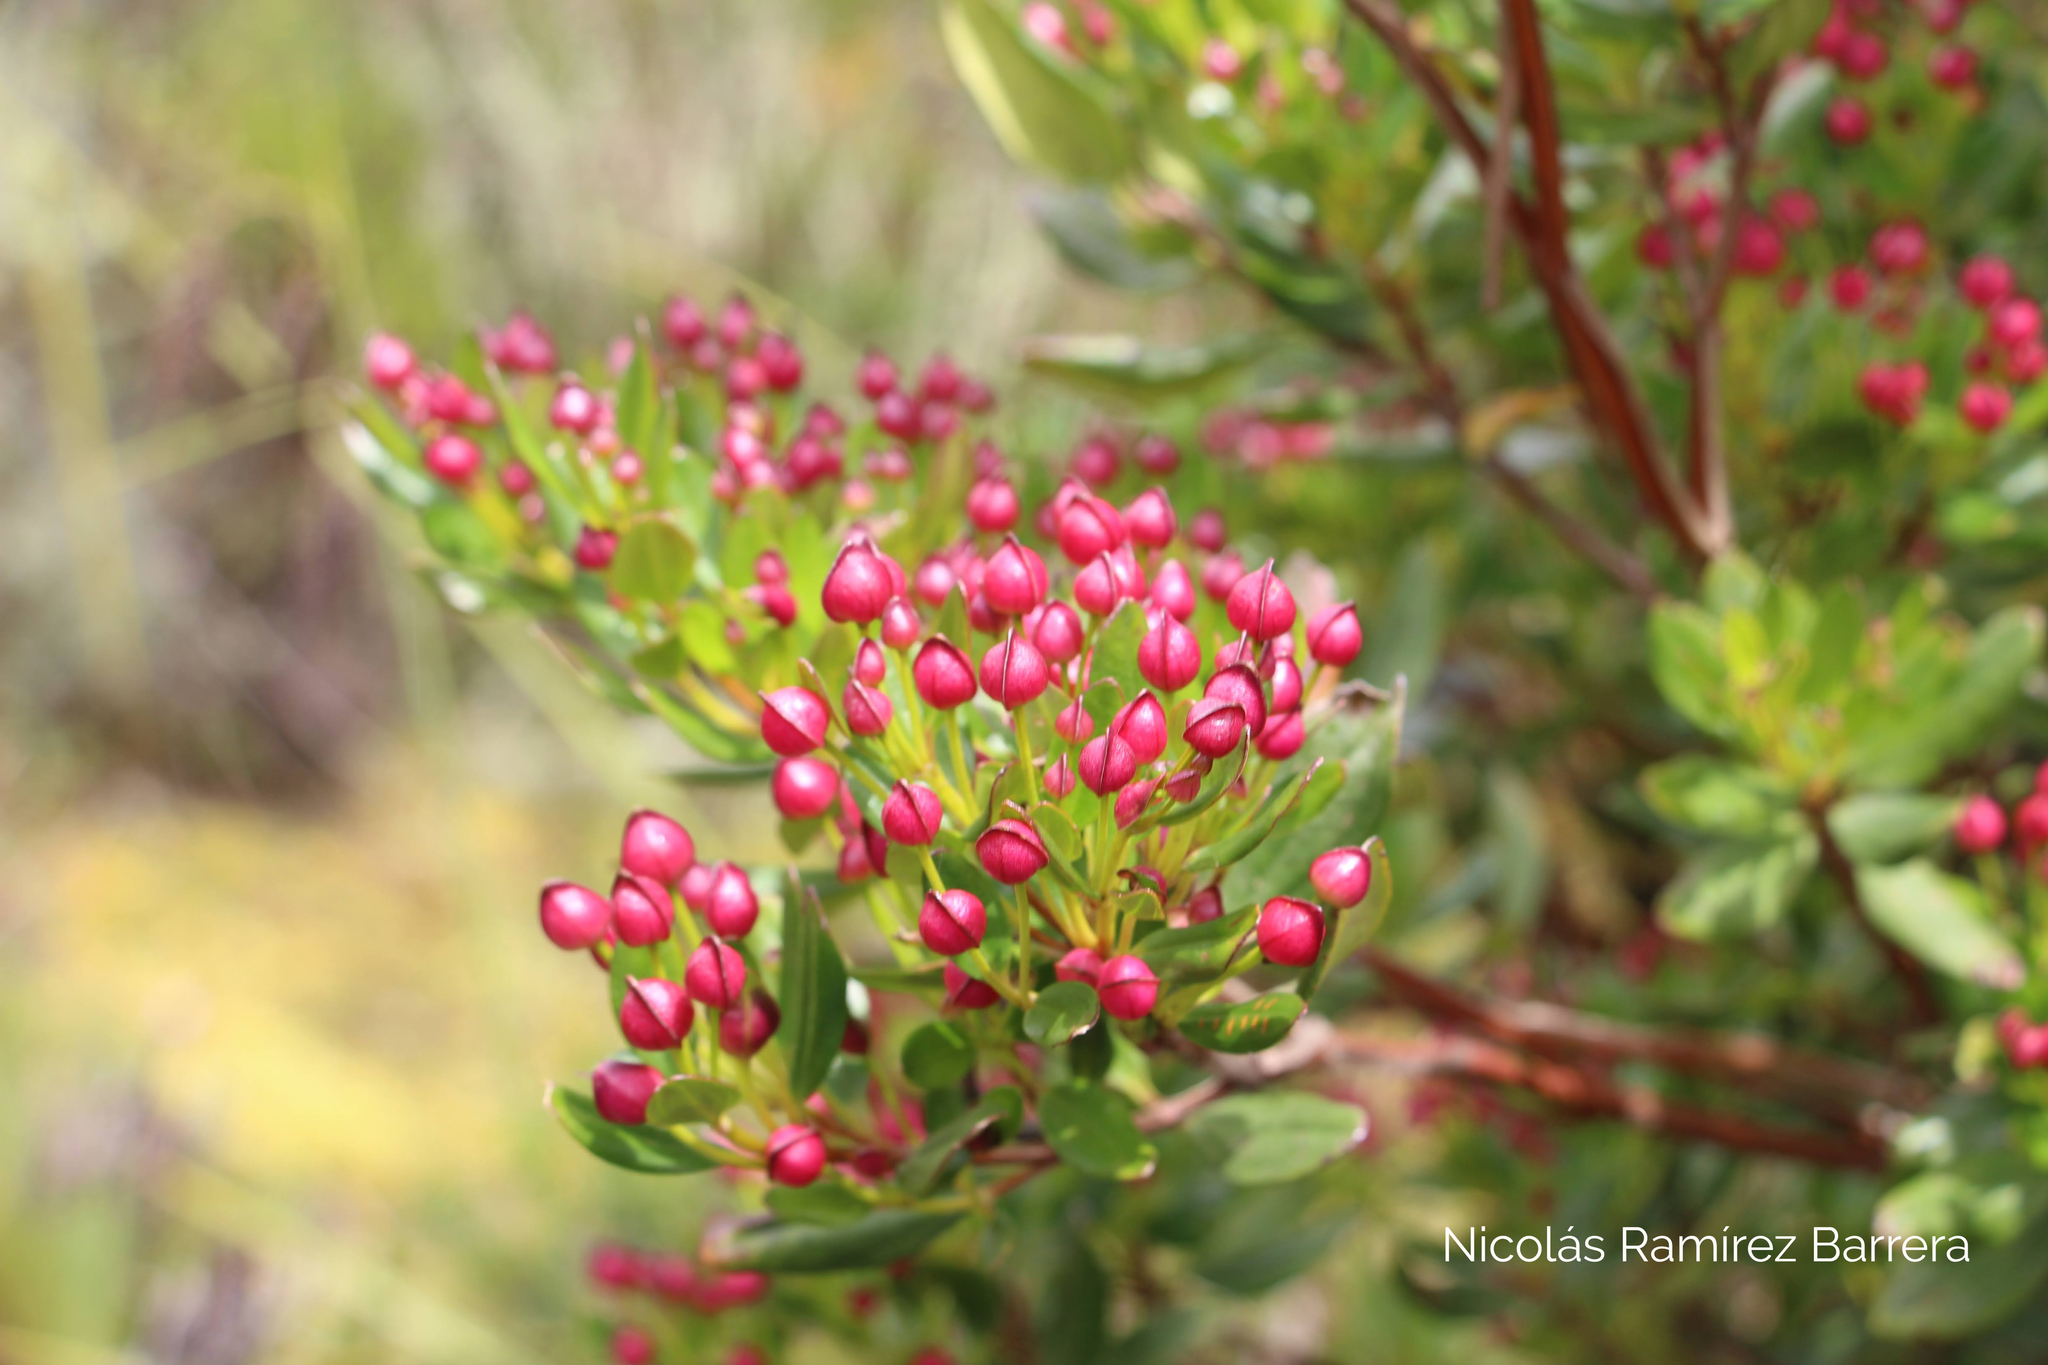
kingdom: Plantae
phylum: Tracheophyta
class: Magnoliopsida
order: Myrtales
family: Melastomataceae
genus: Bucquetia
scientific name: Bucquetia glutinosa
